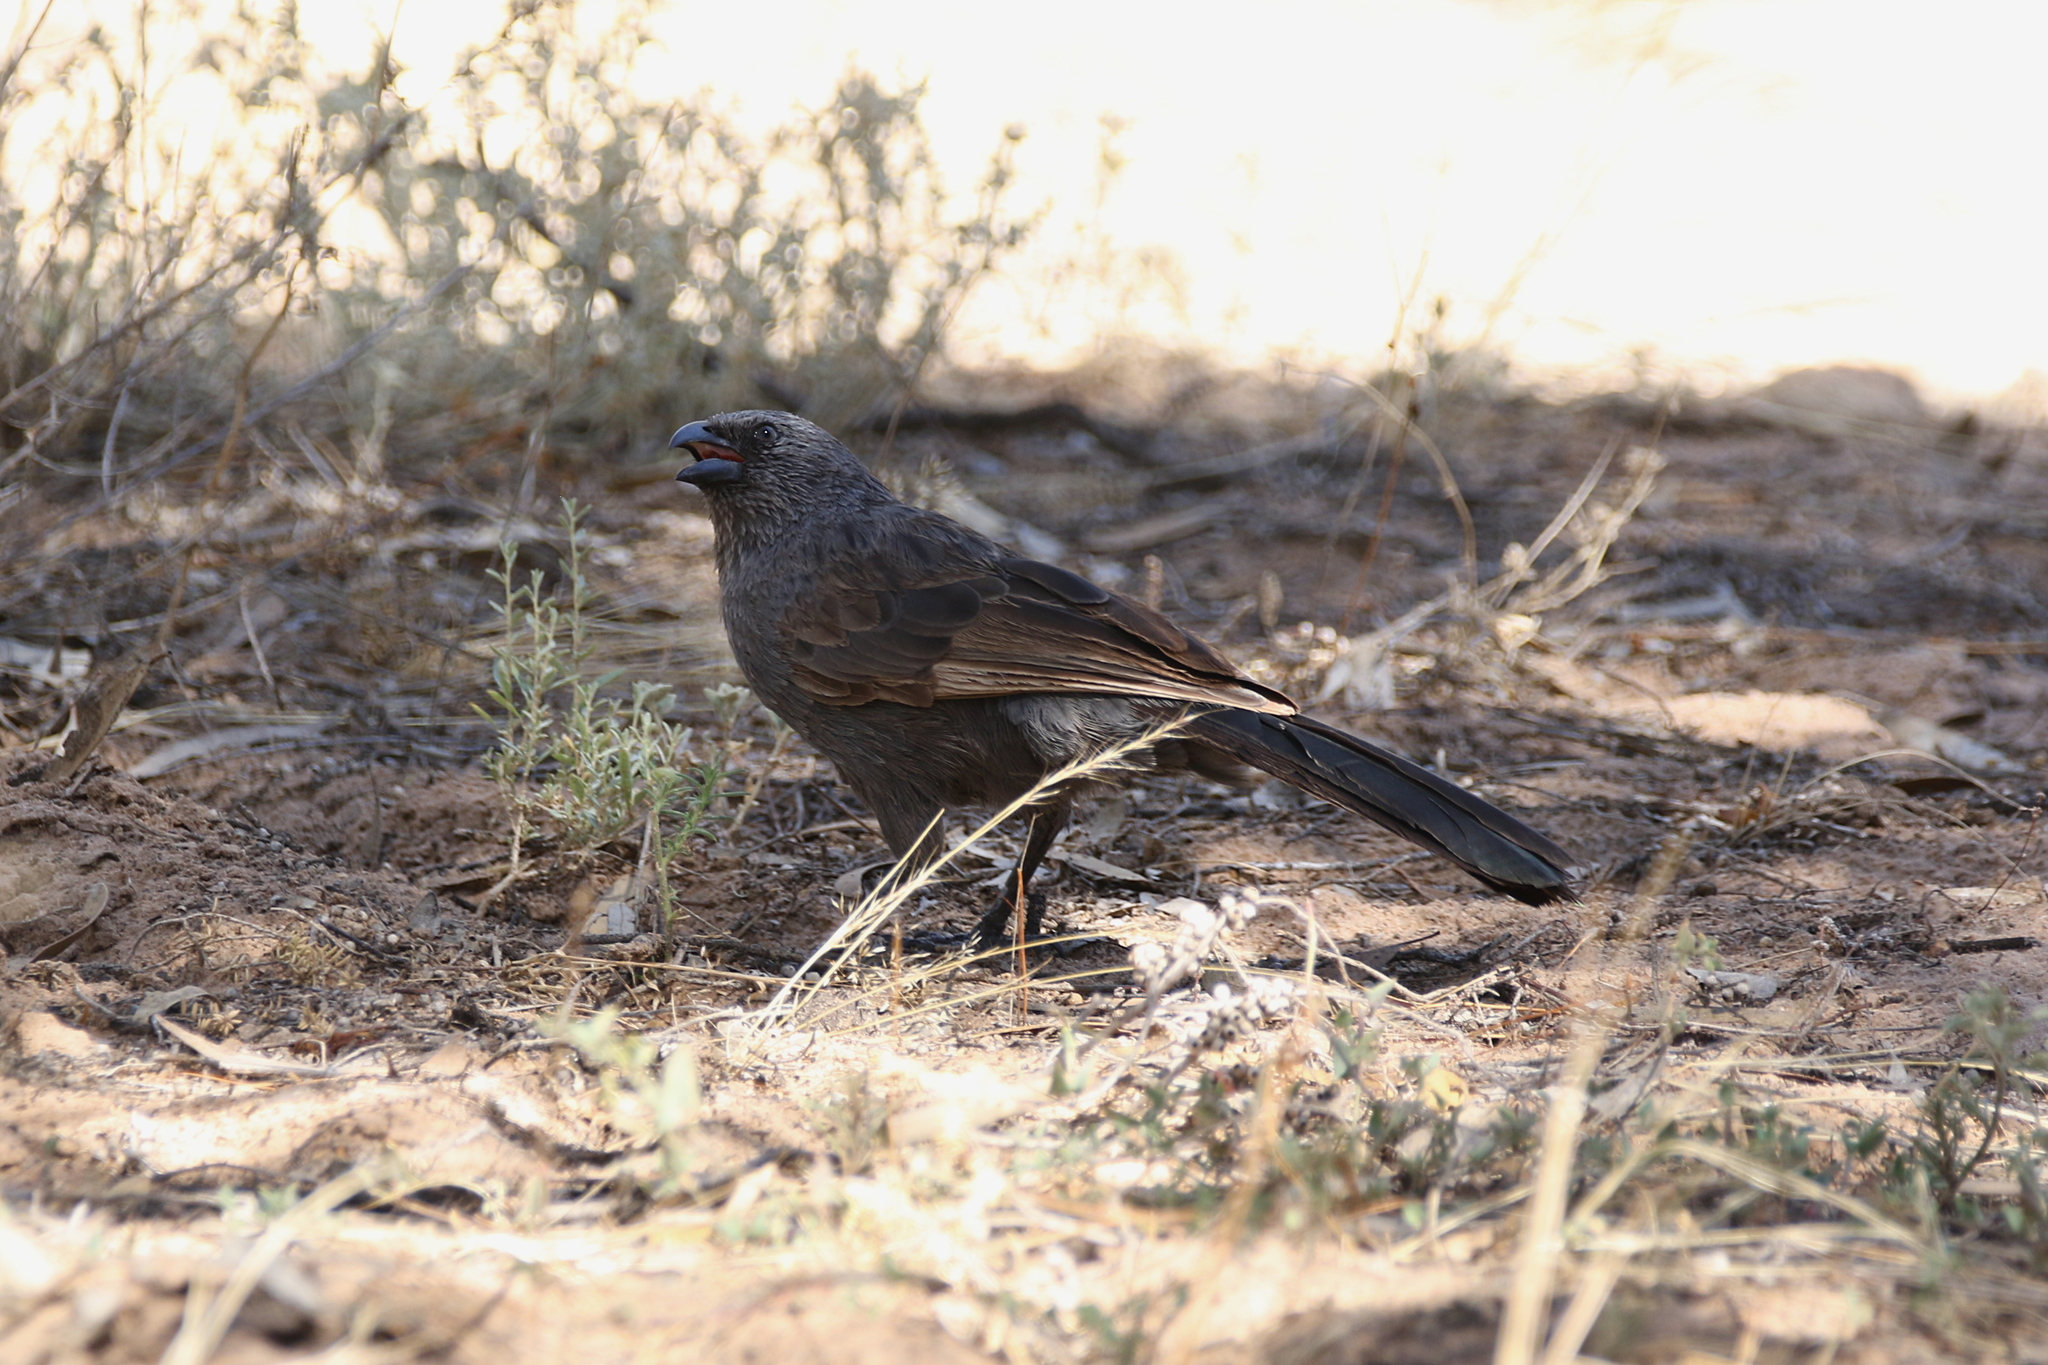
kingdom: Animalia
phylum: Chordata
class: Aves
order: Passeriformes
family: Corcoracidae
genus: Struthidea
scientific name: Struthidea cinerea
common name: Apostlebird
